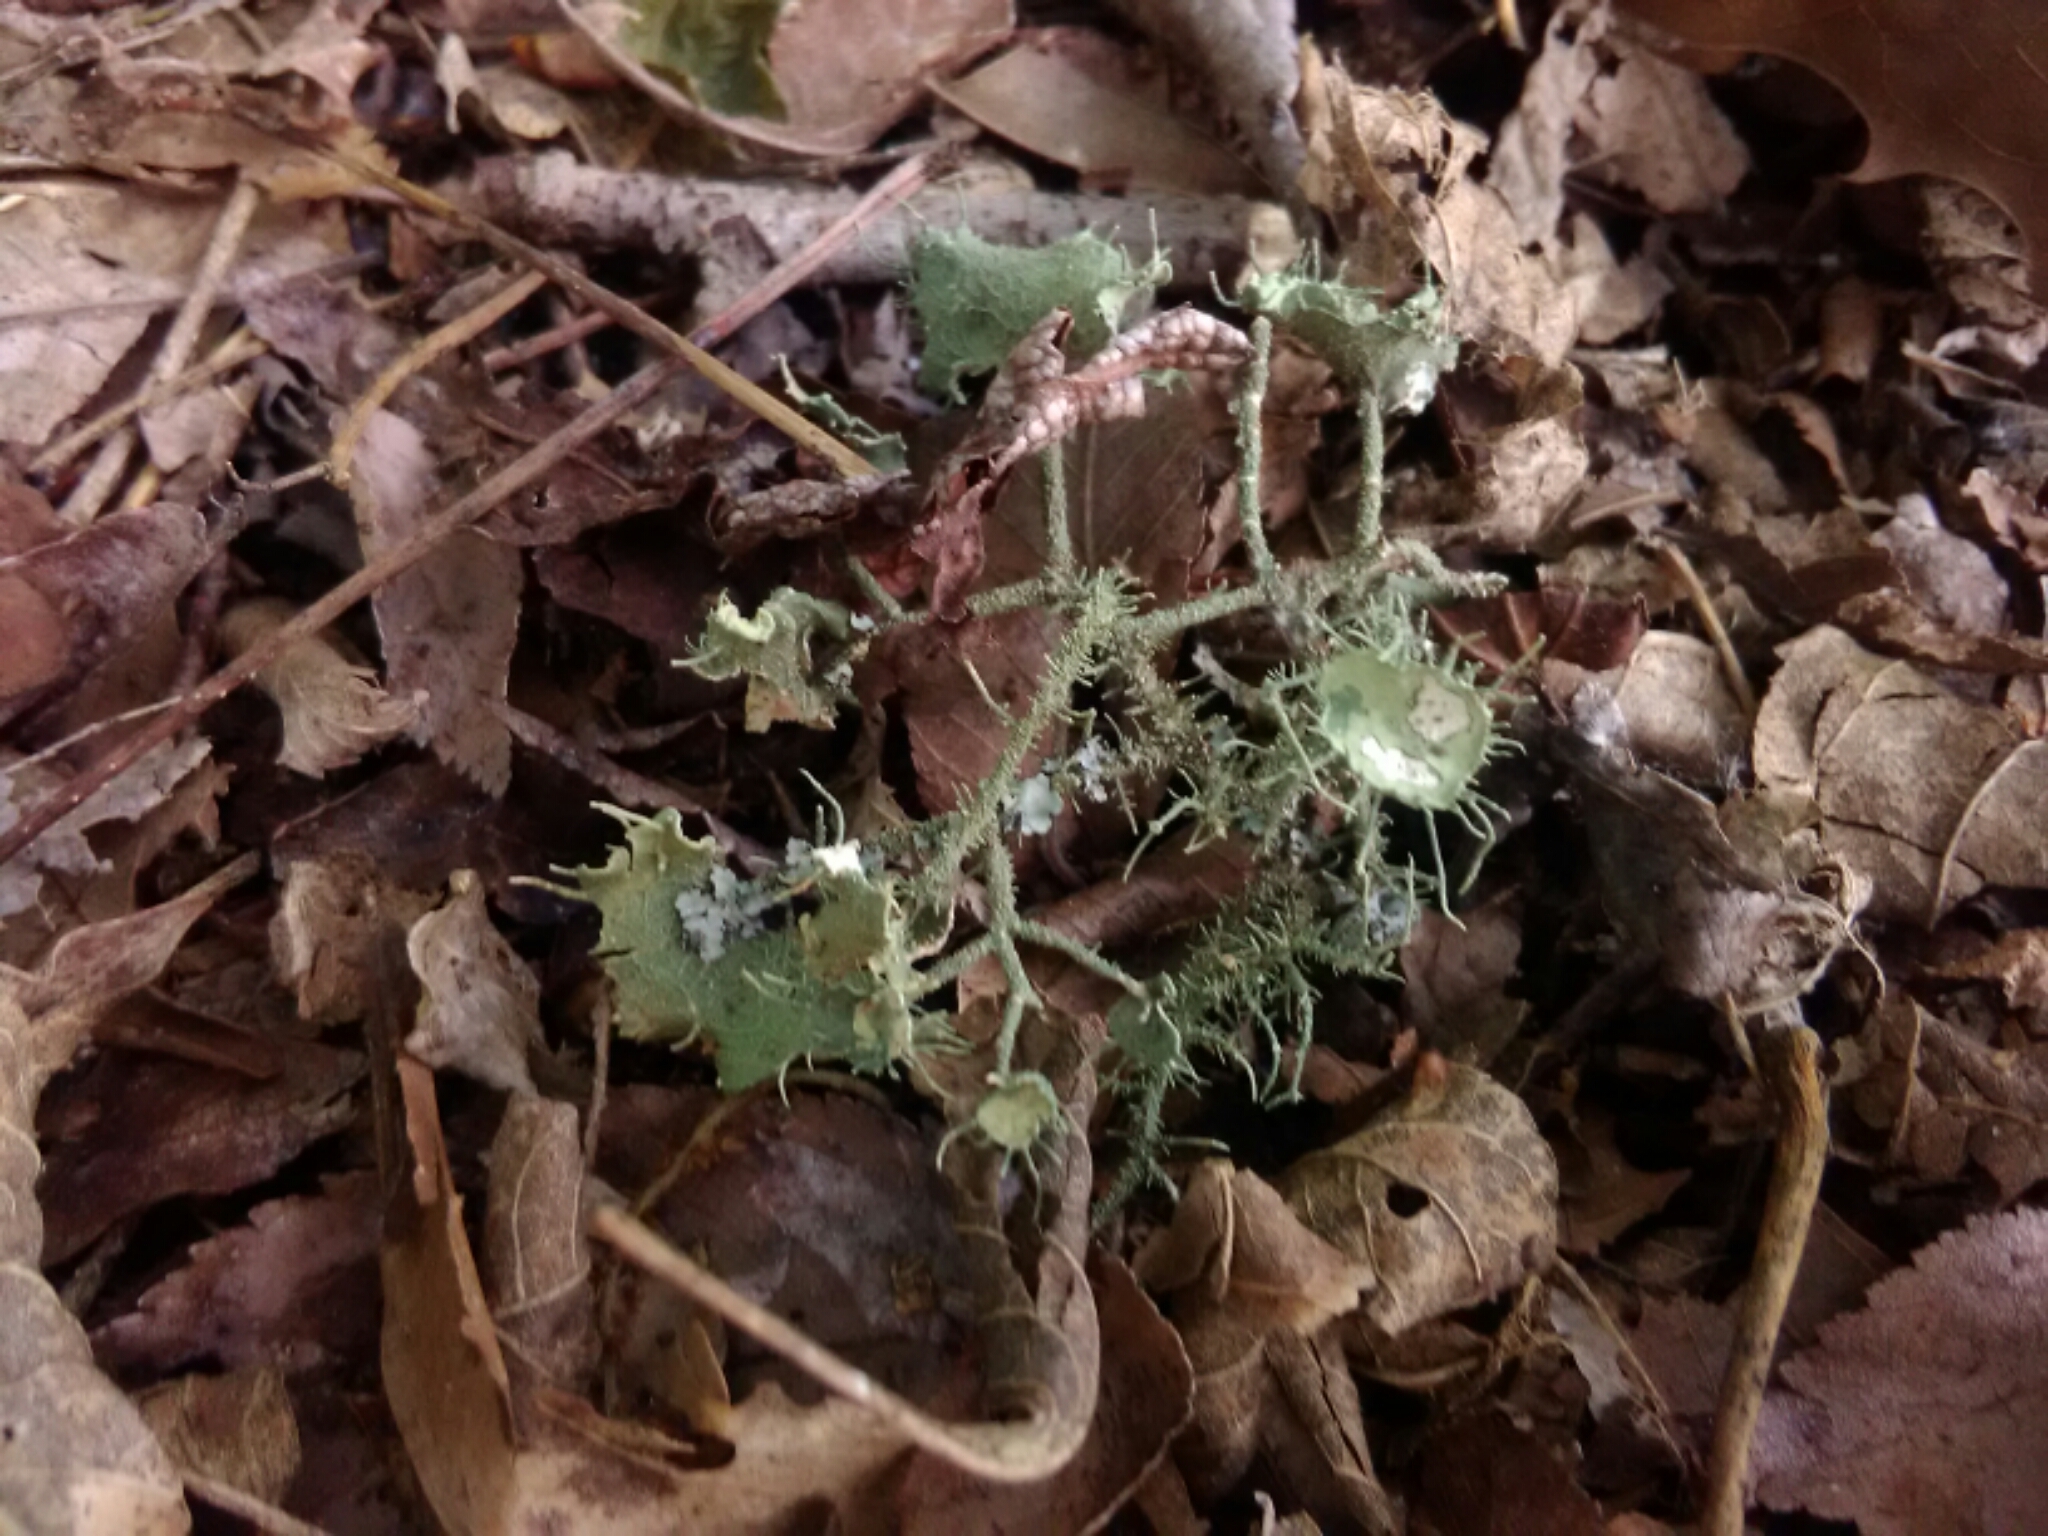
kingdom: Fungi
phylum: Ascomycota
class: Lecanoromycetes
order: Lecanorales
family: Parmeliaceae
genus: Usnea
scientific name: Usnea strigosa
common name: Bushy beard lichen
